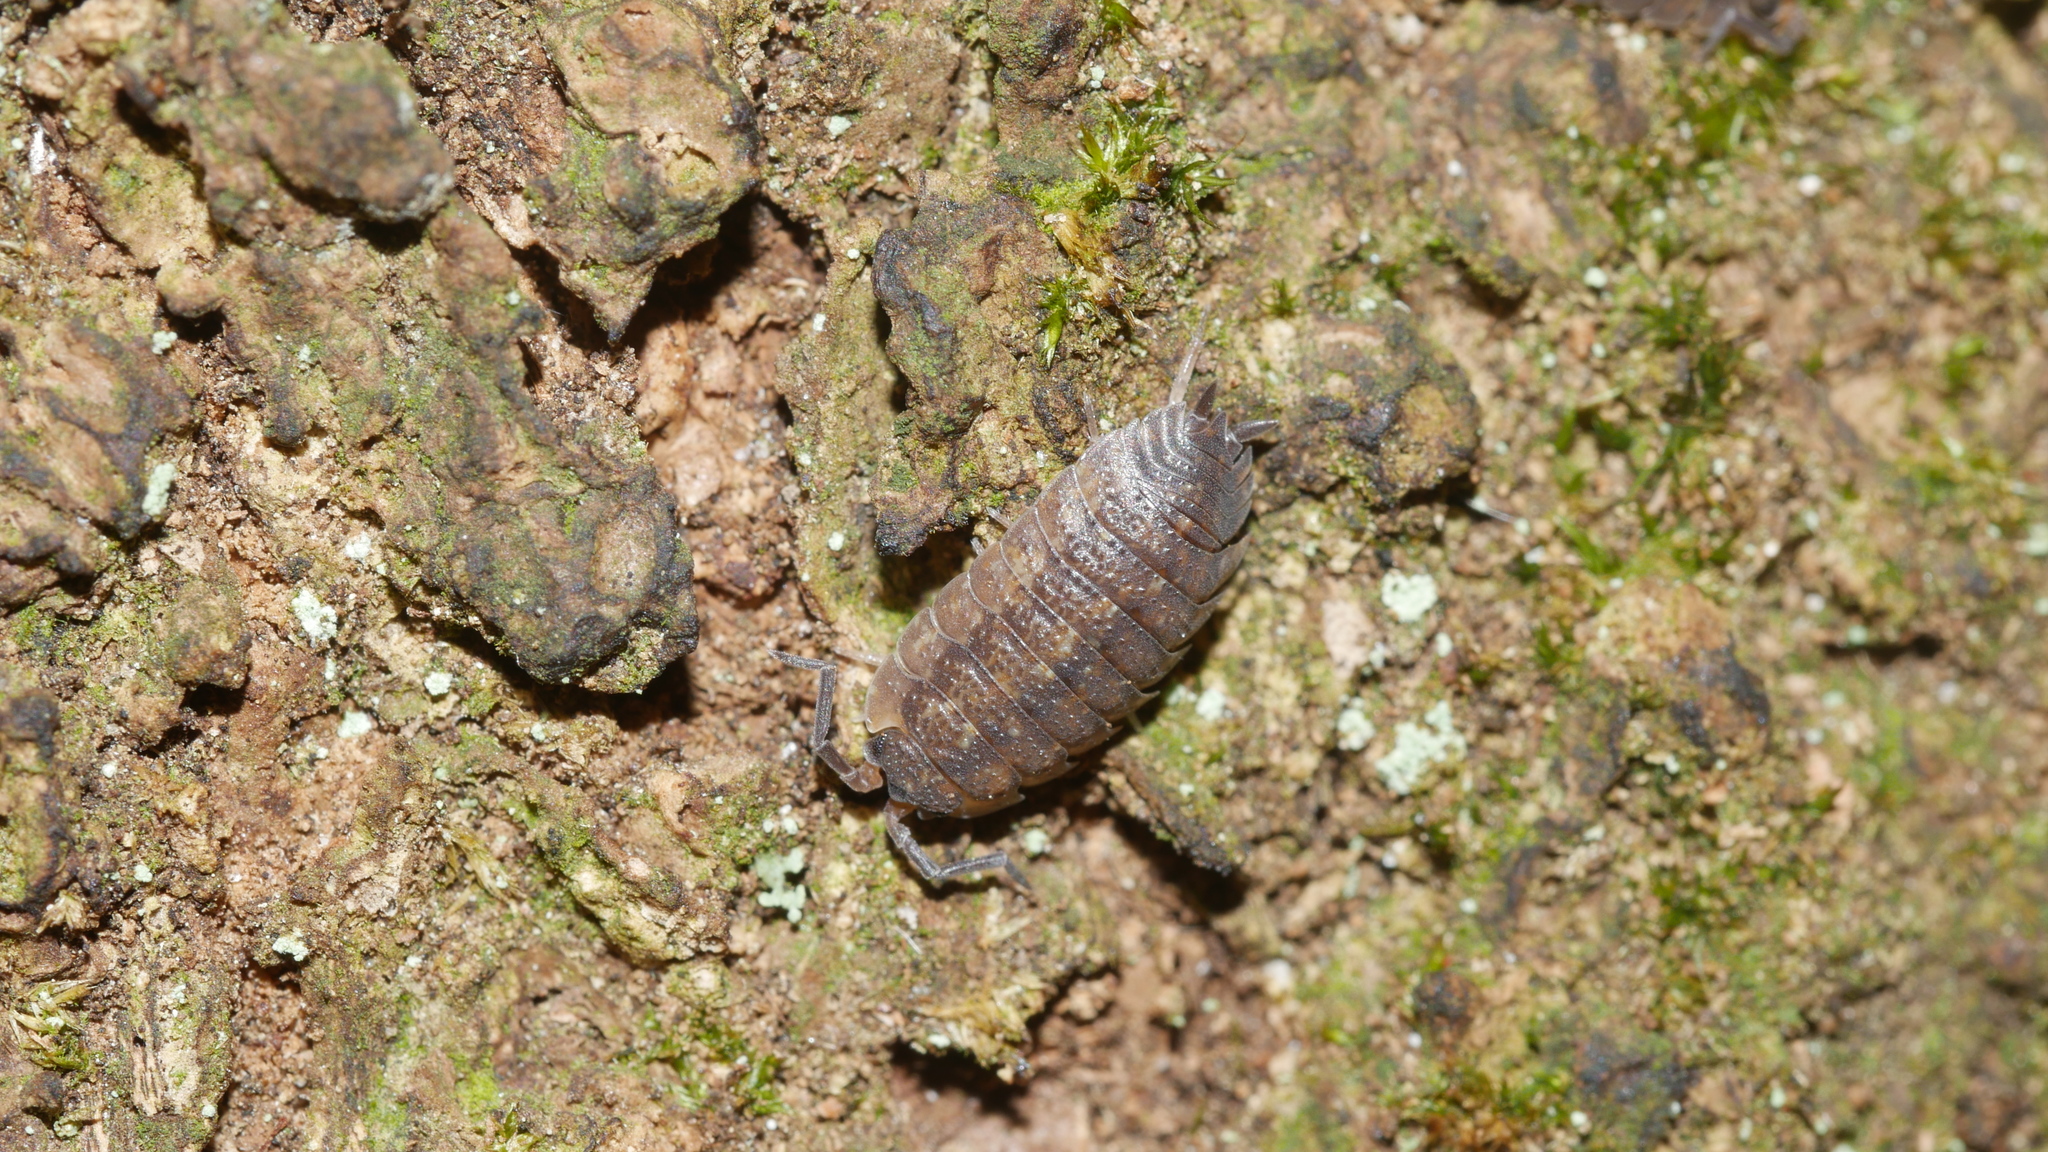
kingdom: Animalia
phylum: Arthropoda
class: Malacostraca
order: Isopoda
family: Porcellionidae
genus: Porcellio
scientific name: Porcellio scaber
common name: Common rough woodlouse
